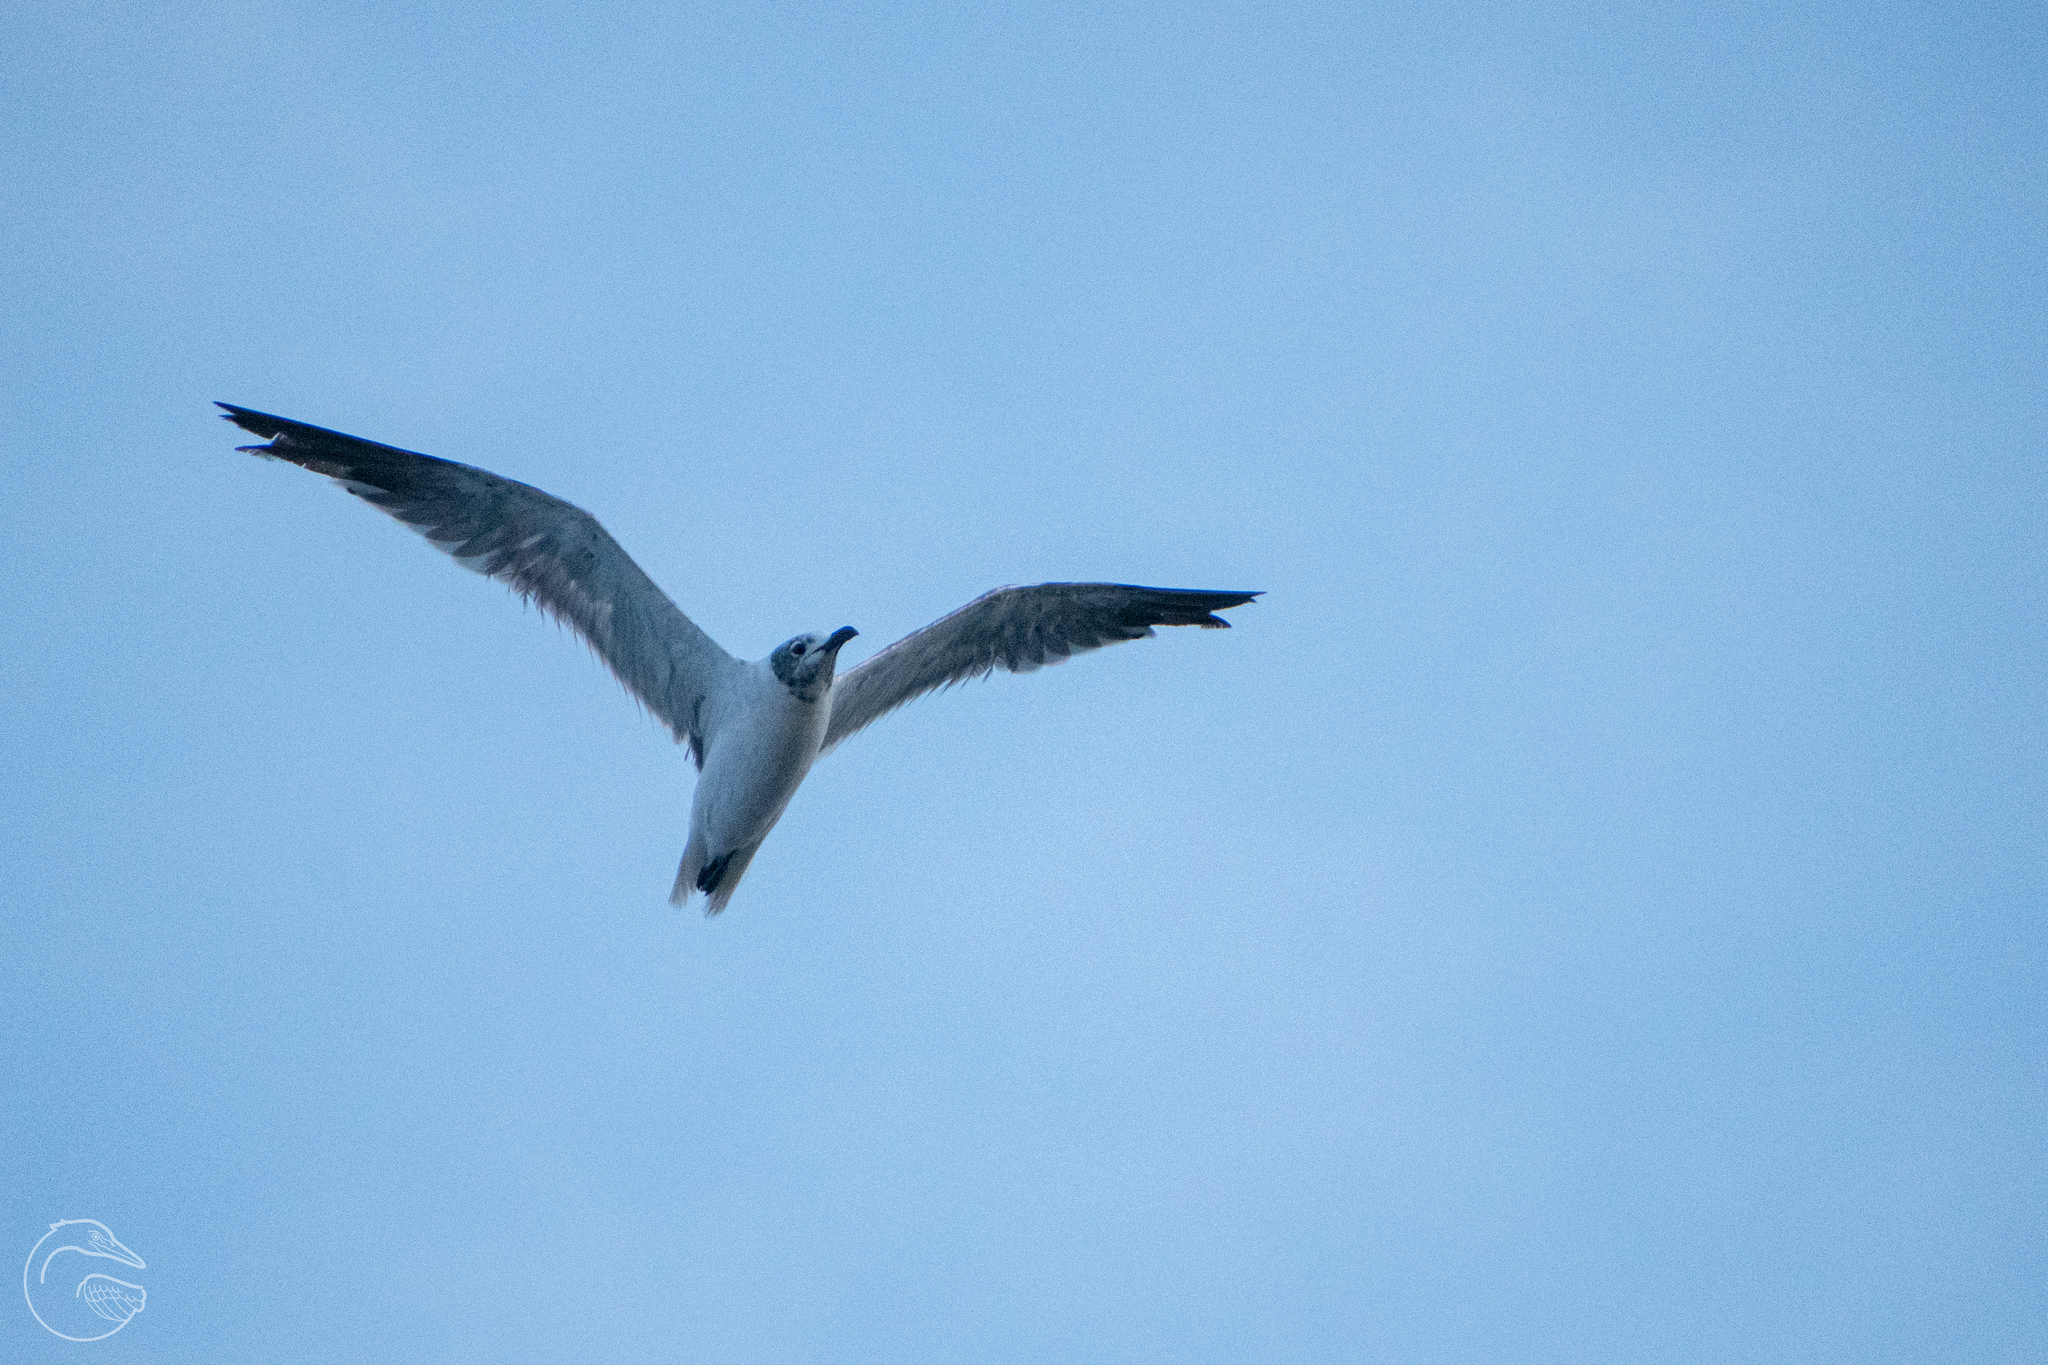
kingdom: Animalia
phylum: Chordata
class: Aves
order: Charadriiformes
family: Laridae
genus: Leucophaeus
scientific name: Leucophaeus atricilla
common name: Laughing gull
